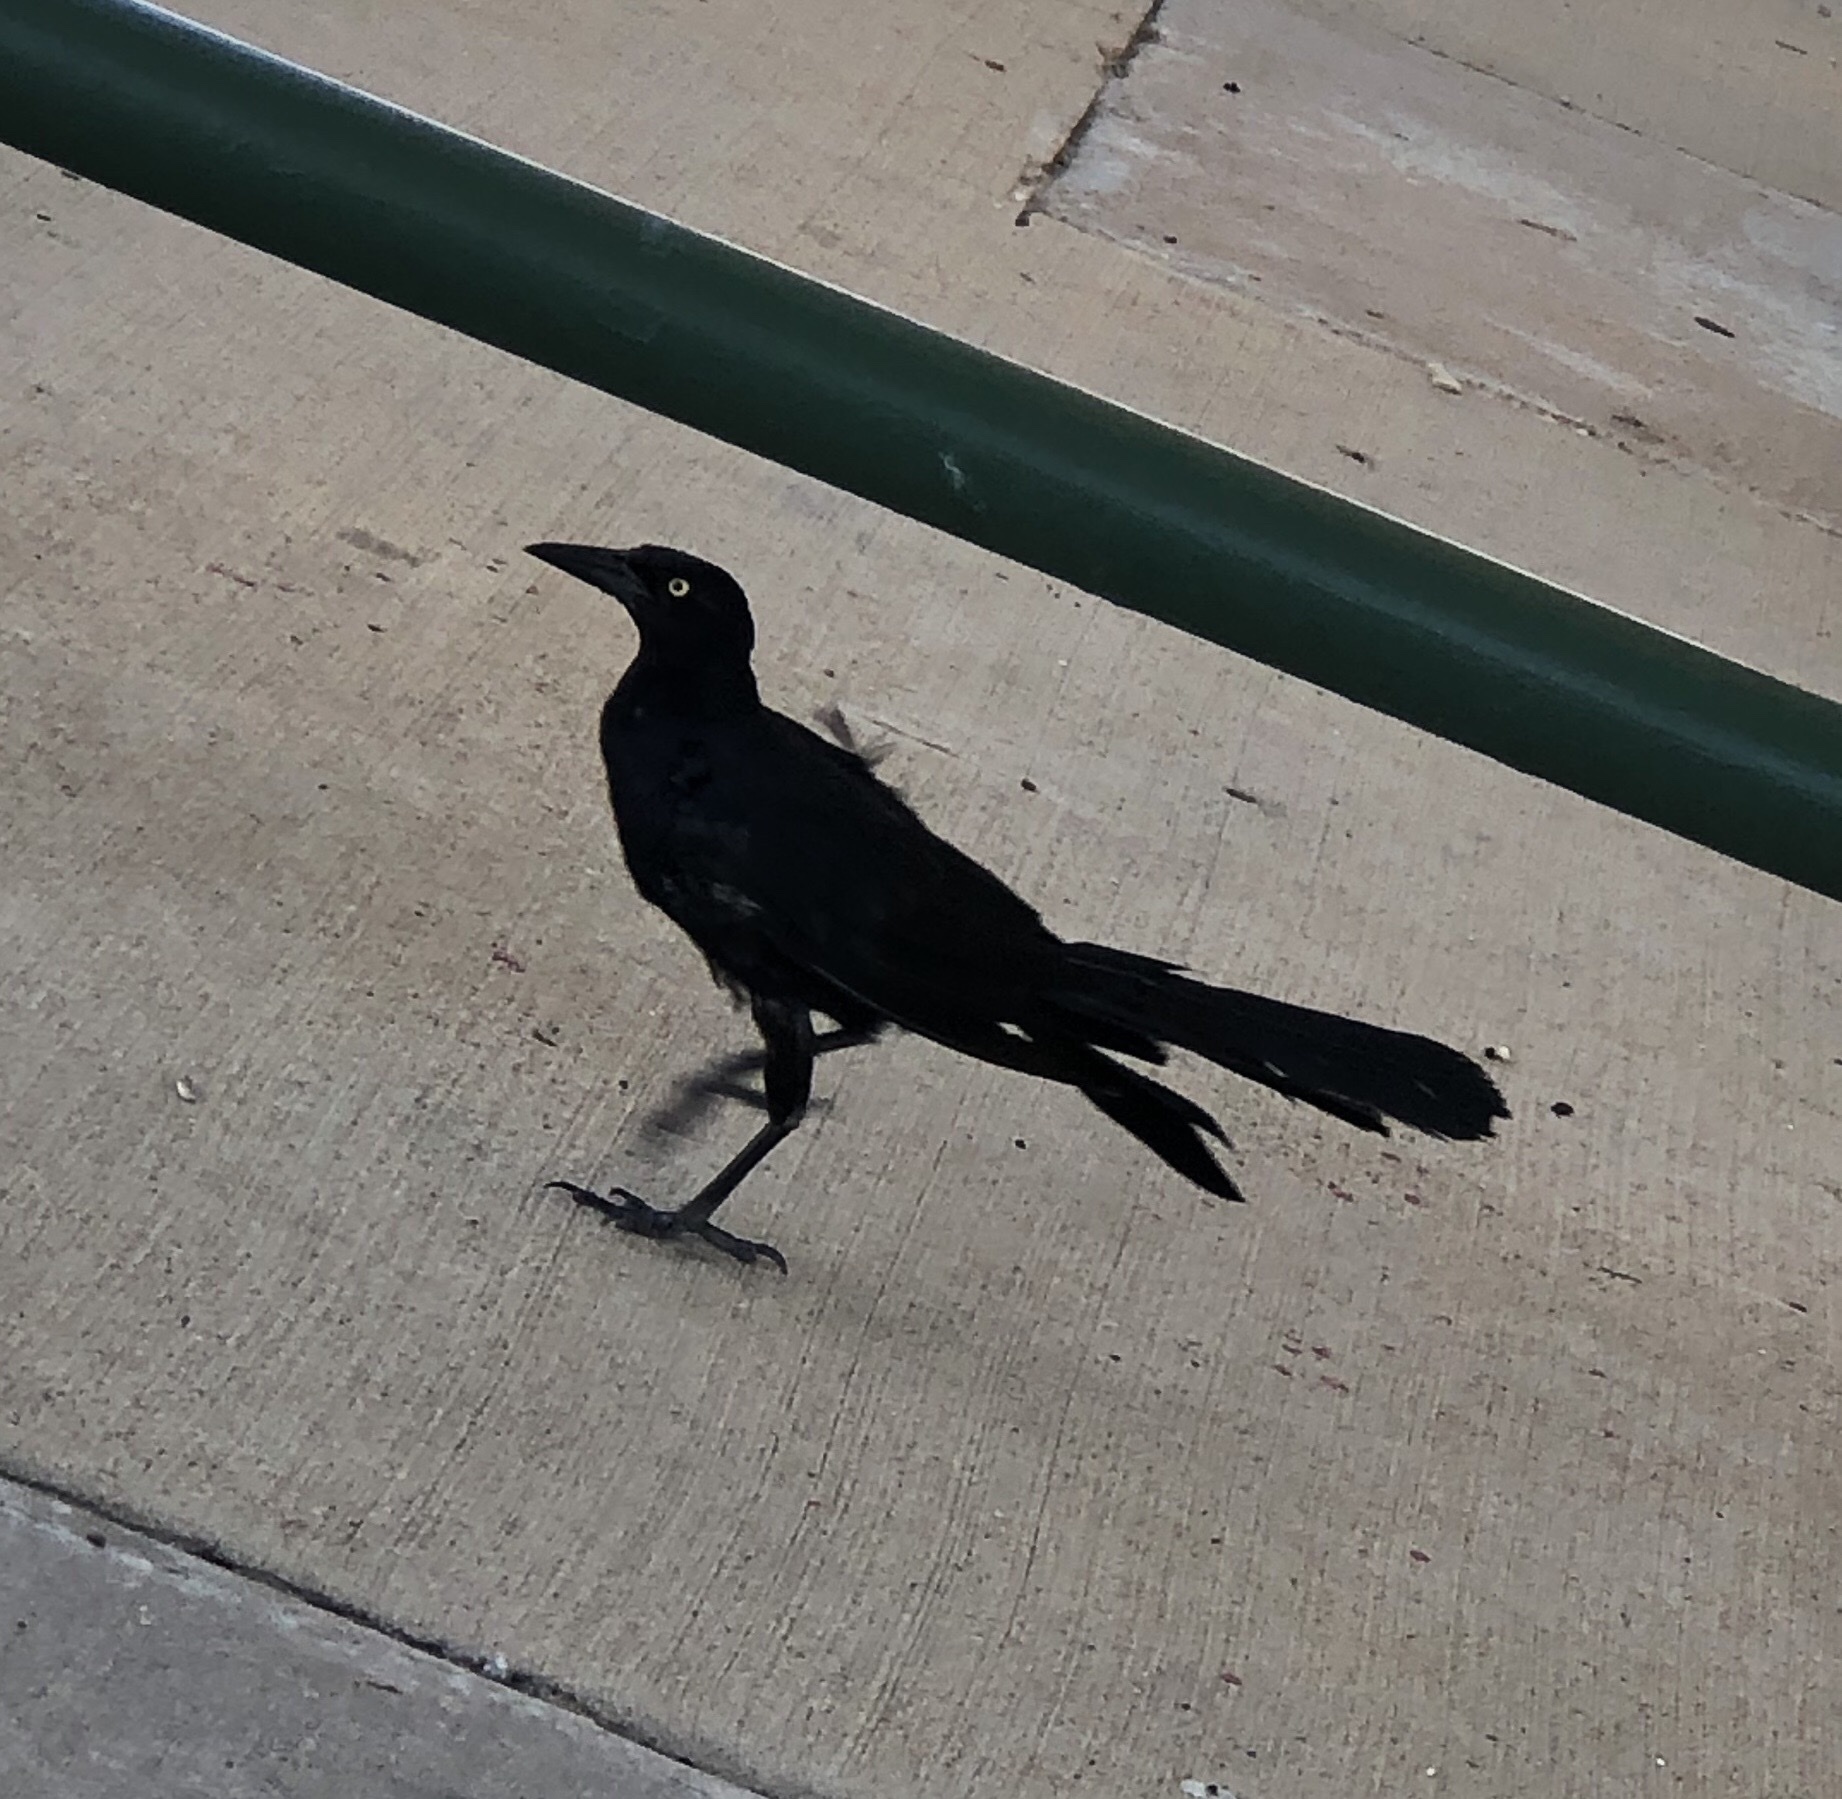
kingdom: Animalia
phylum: Chordata
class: Aves
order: Passeriformes
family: Icteridae
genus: Quiscalus
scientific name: Quiscalus mexicanus
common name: Great-tailed grackle
